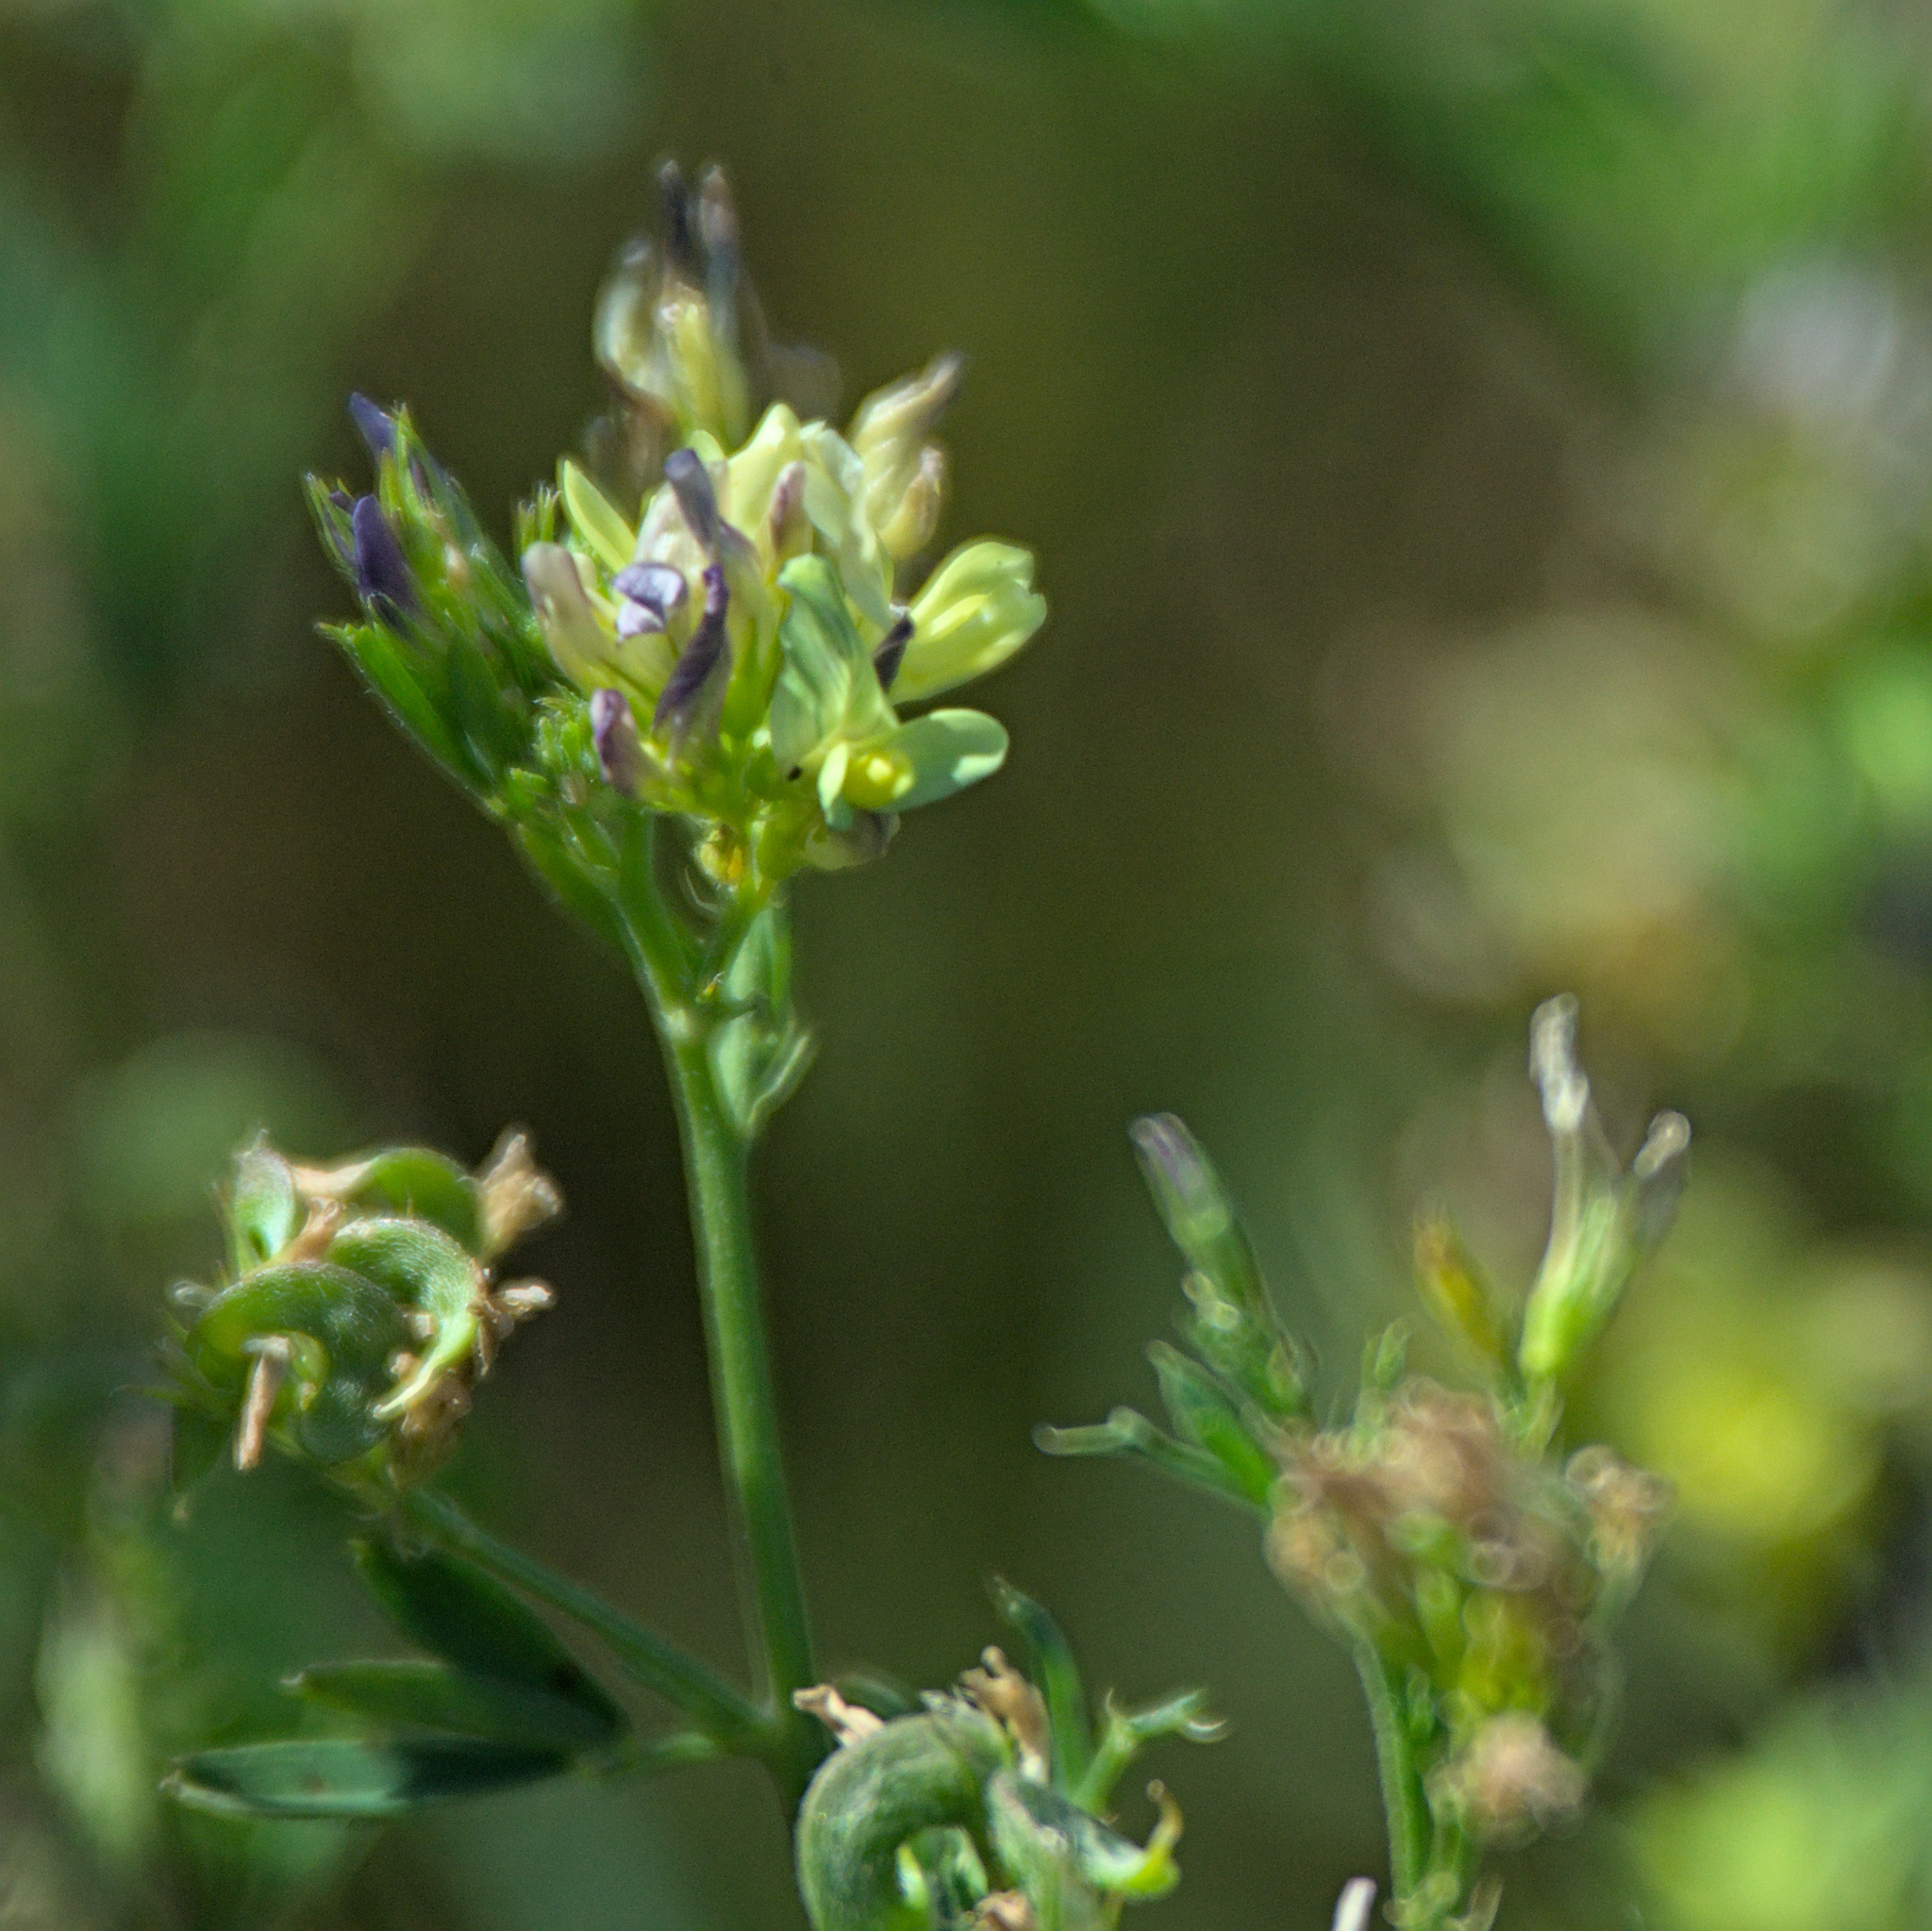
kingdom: Plantae
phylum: Tracheophyta
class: Magnoliopsida
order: Fabales
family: Fabaceae
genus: Medicago
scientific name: Medicago varia
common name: Sand lucerne
